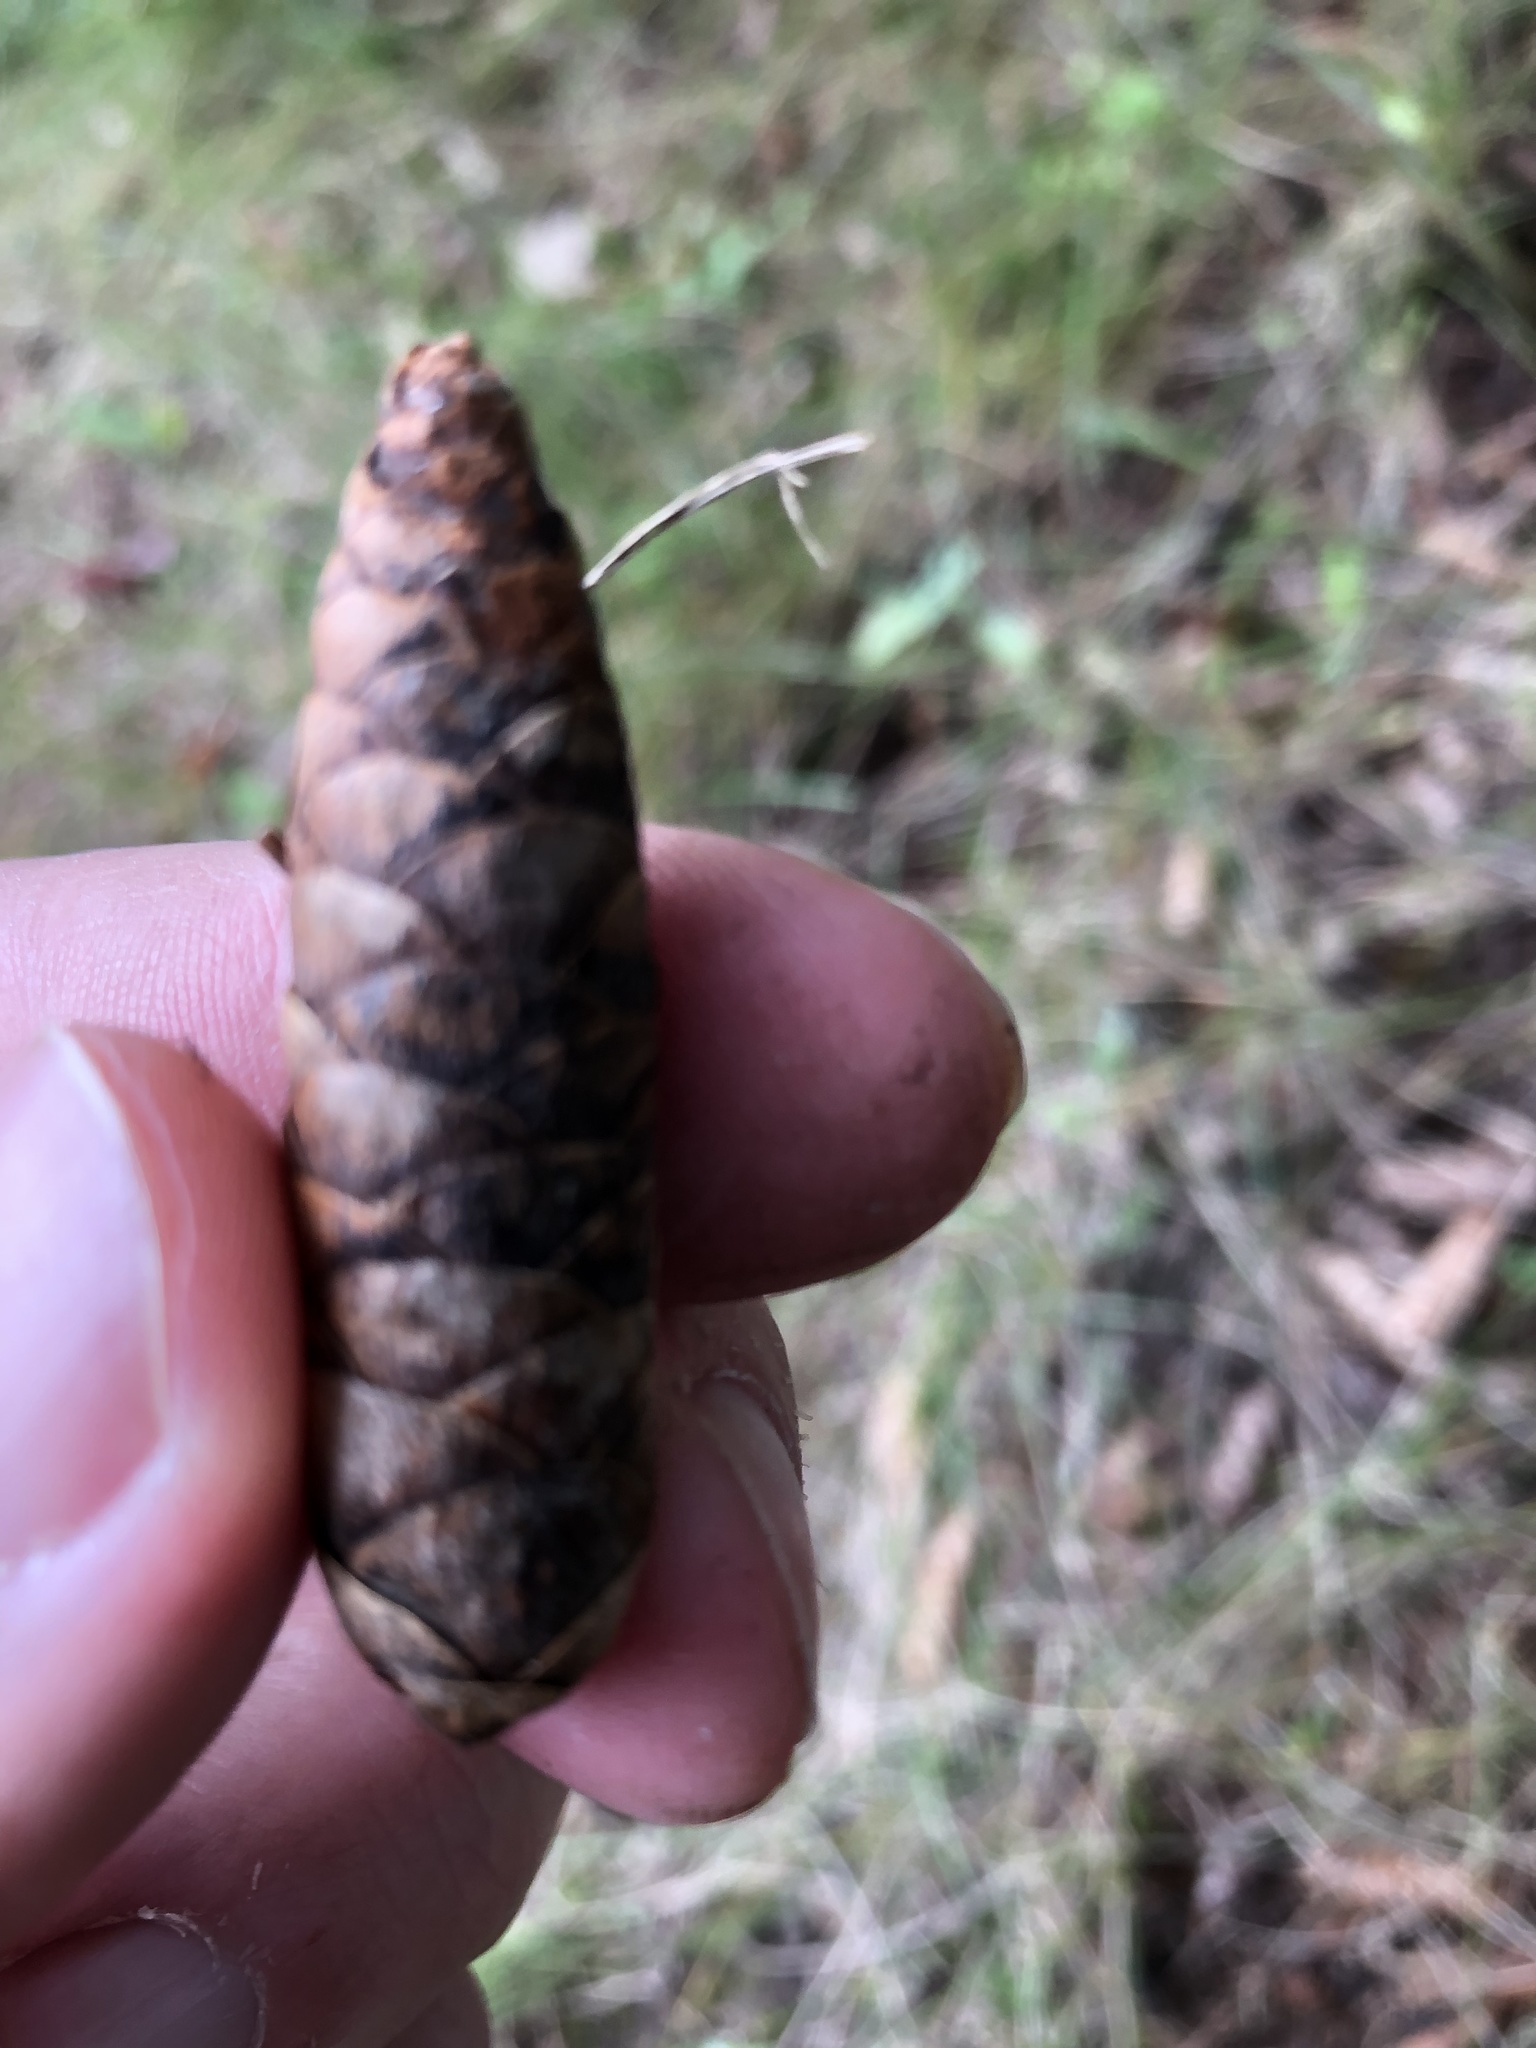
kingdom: Plantae
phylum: Tracheophyta
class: Pinopsida
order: Pinales
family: Pinaceae
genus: Picea
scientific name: Picea glauca
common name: White spruce
